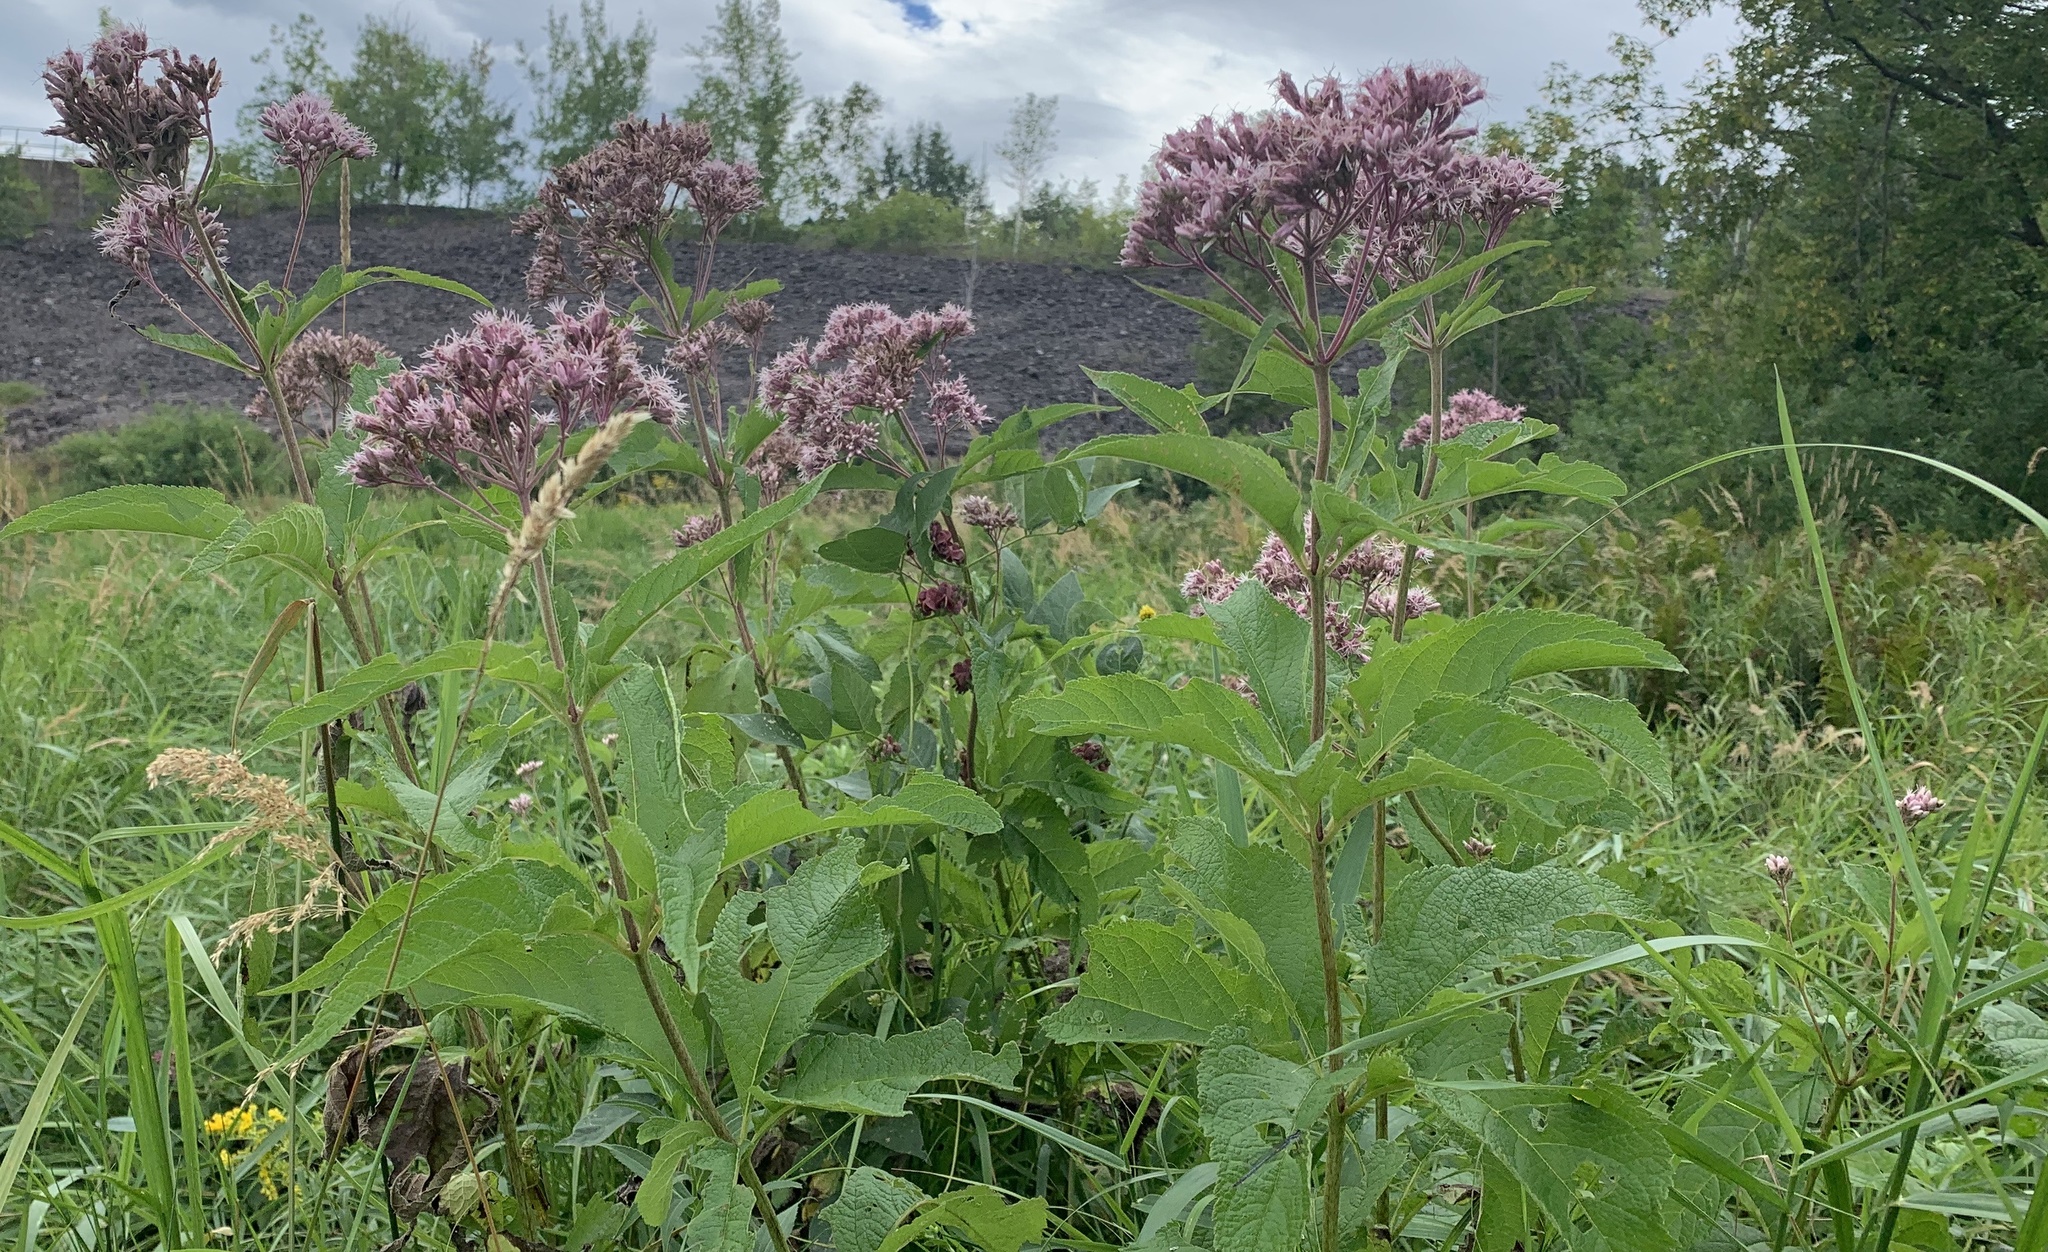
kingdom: Plantae
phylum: Tracheophyta
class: Magnoliopsida
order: Asterales
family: Asteraceae
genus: Eutrochium
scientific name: Eutrochium maculatum
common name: Spotted joe pye weed
